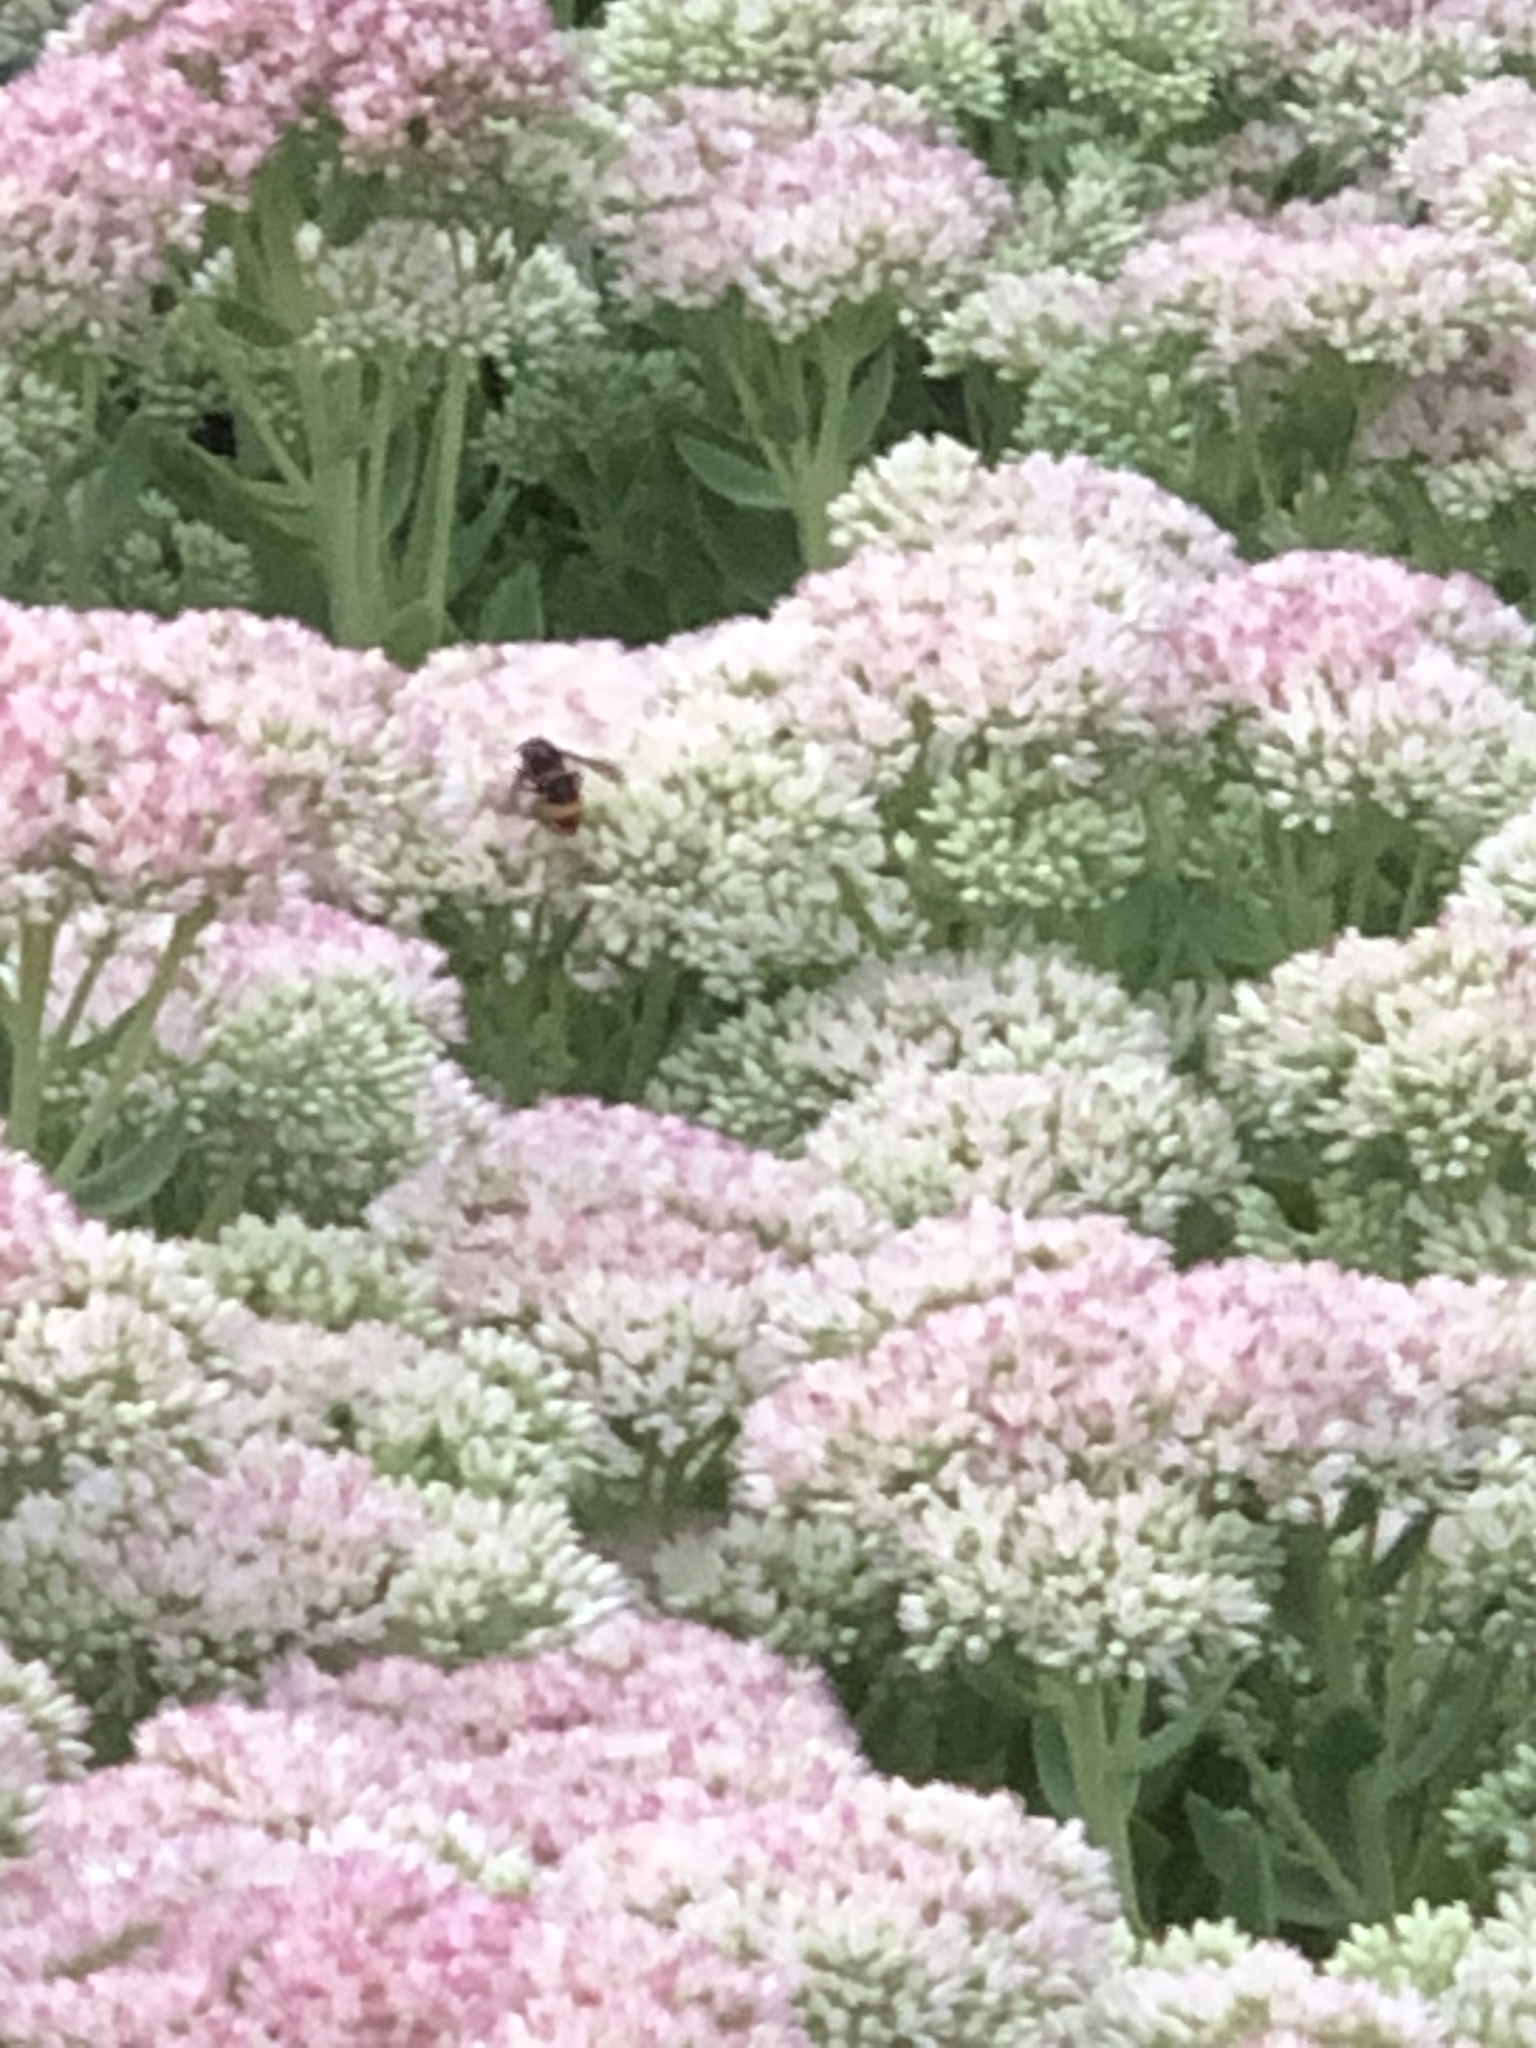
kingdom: Animalia
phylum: Arthropoda
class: Insecta
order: Hymenoptera
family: Vespidae
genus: Vespa
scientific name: Vespa velutina
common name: Asian hornet
